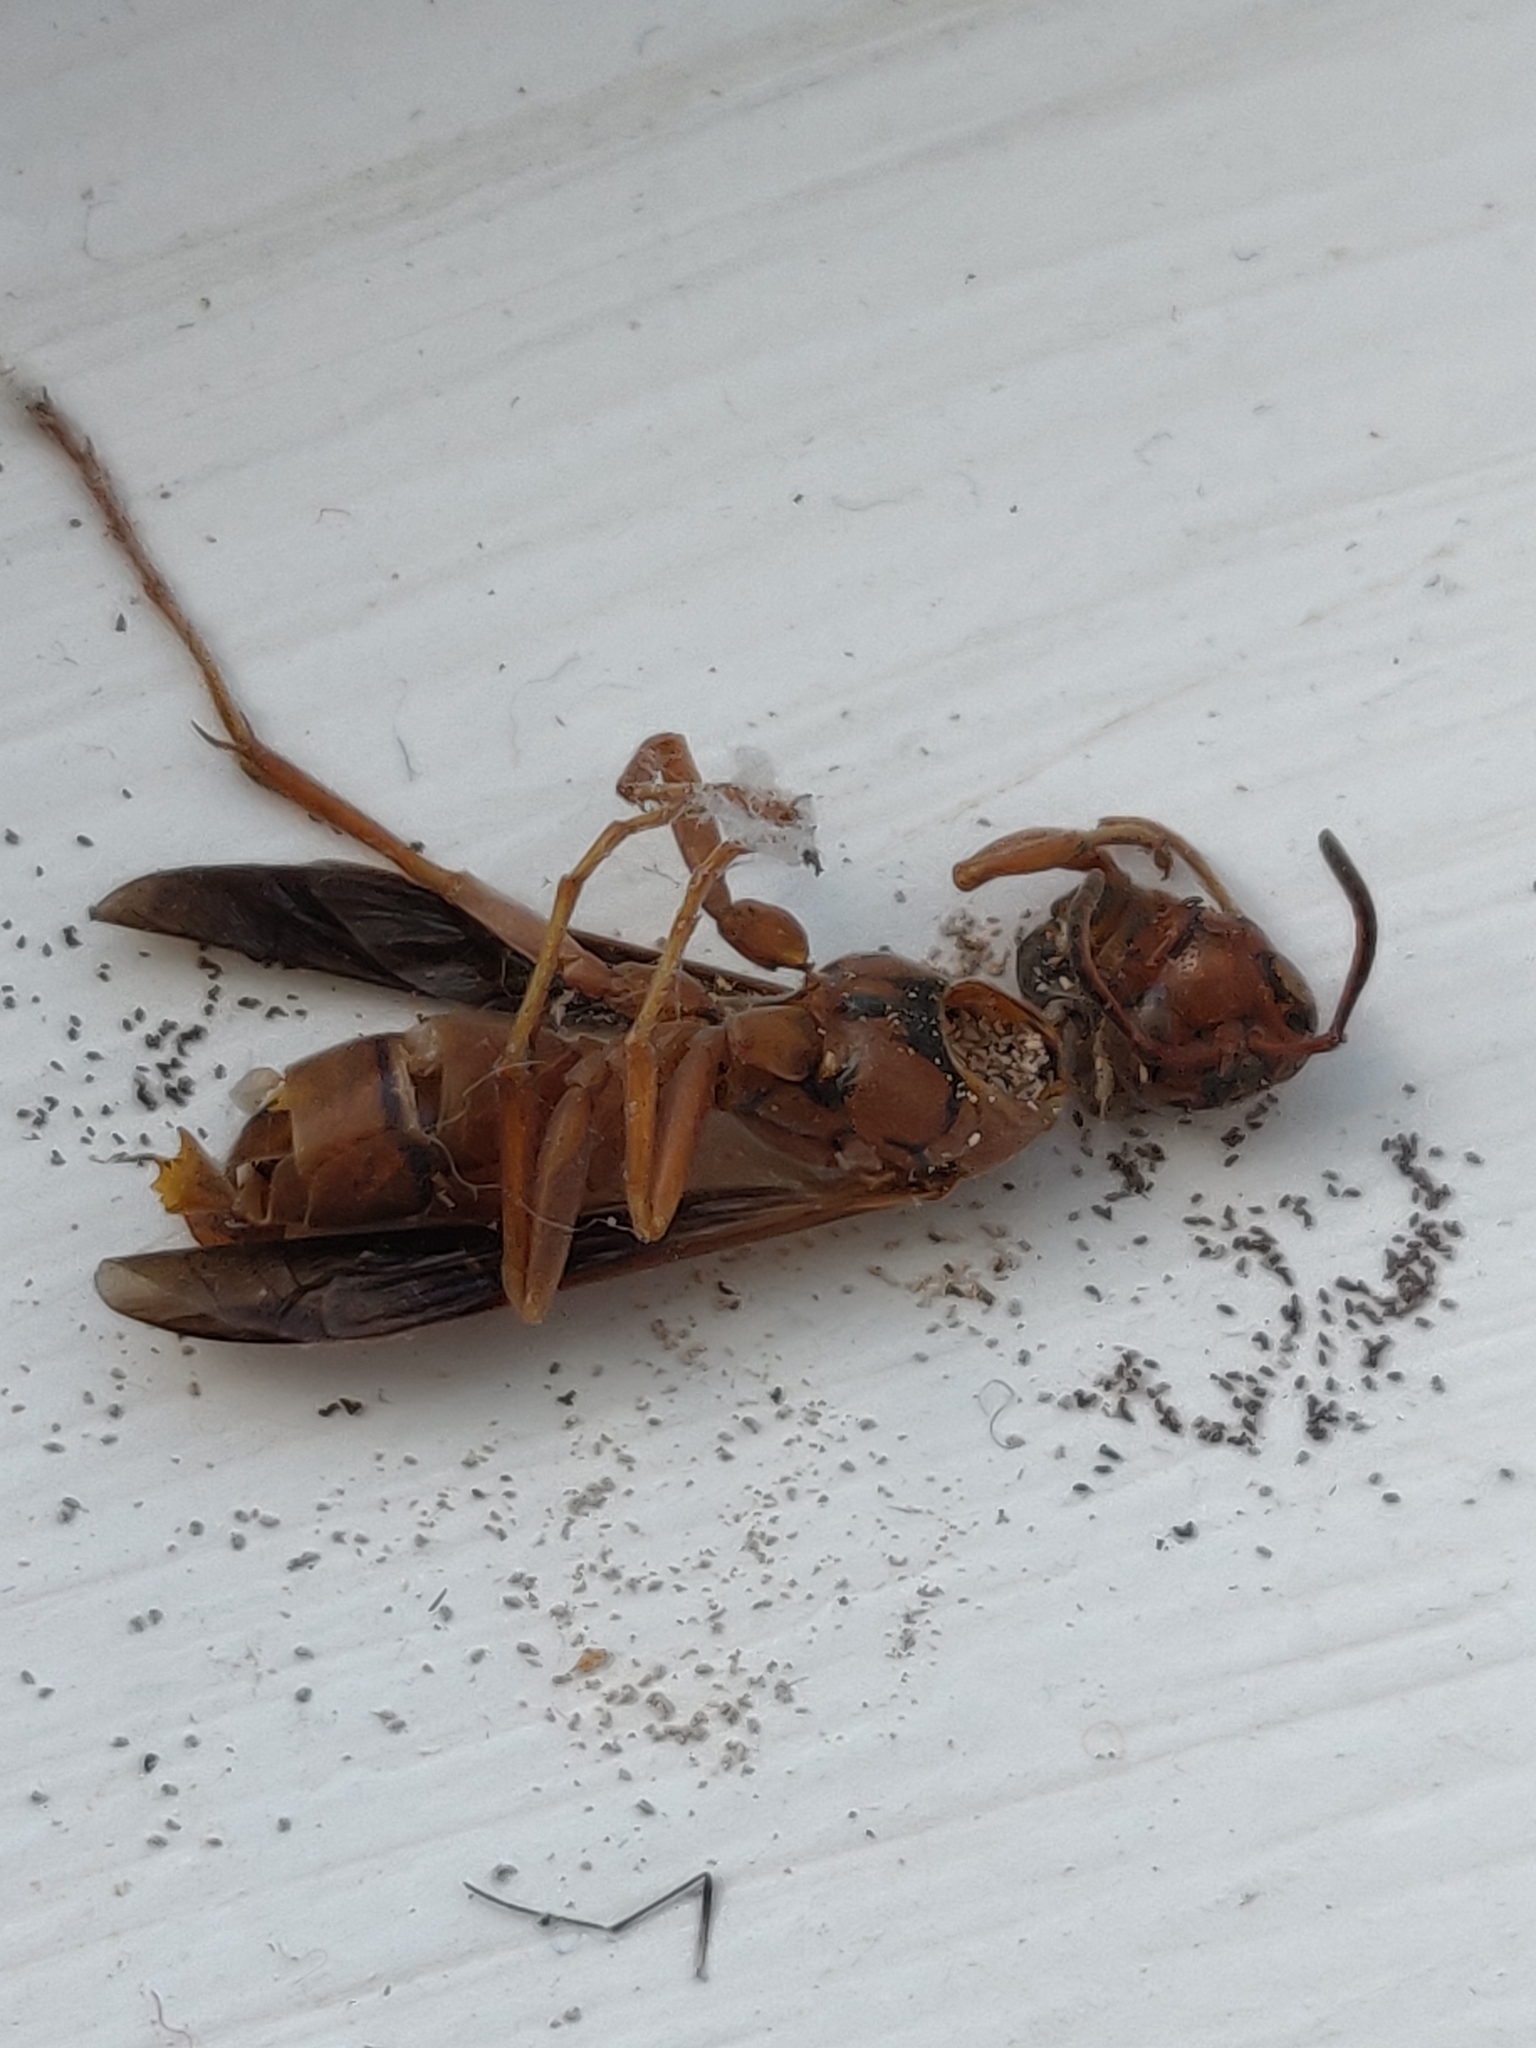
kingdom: Animalia
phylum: Arthropoda
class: Insecta
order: Hymenoptera
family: Vespidae
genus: Fuscopolistes
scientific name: Fuscopolistes
